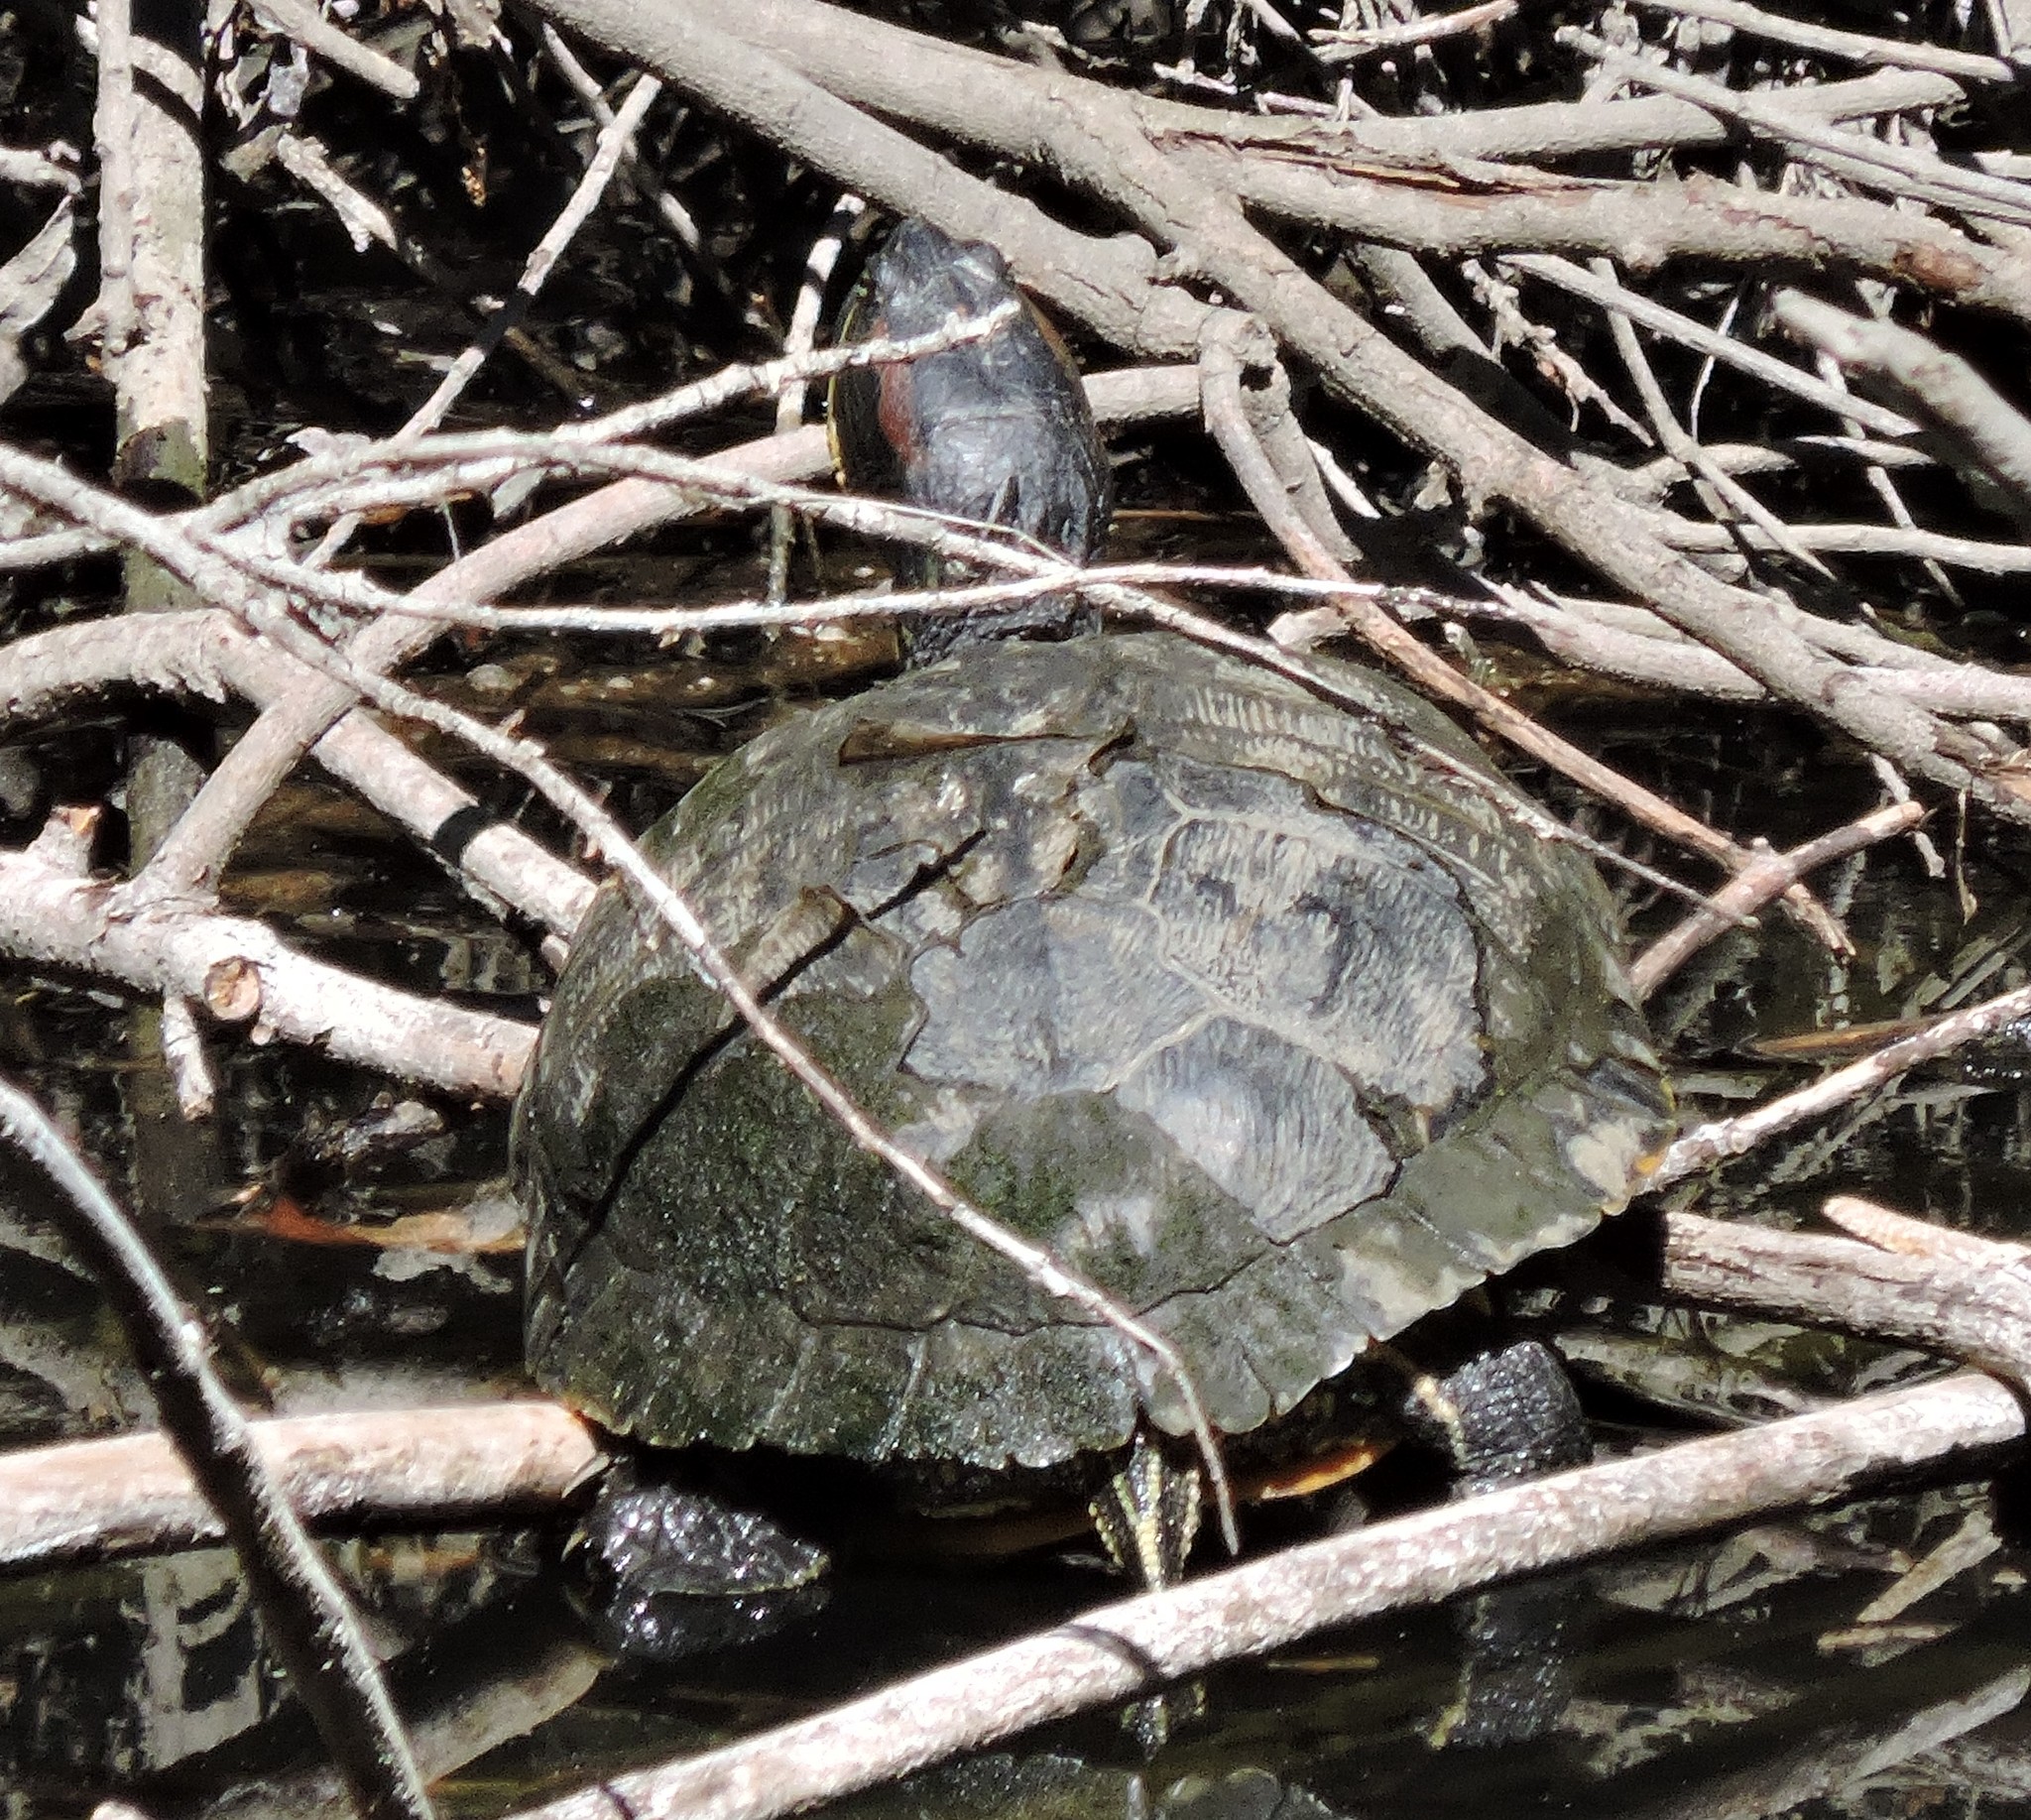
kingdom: Animalia
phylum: Chordata
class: Testudines
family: Emydidae
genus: Trachemys
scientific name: Trachemys scripta
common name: Slider
